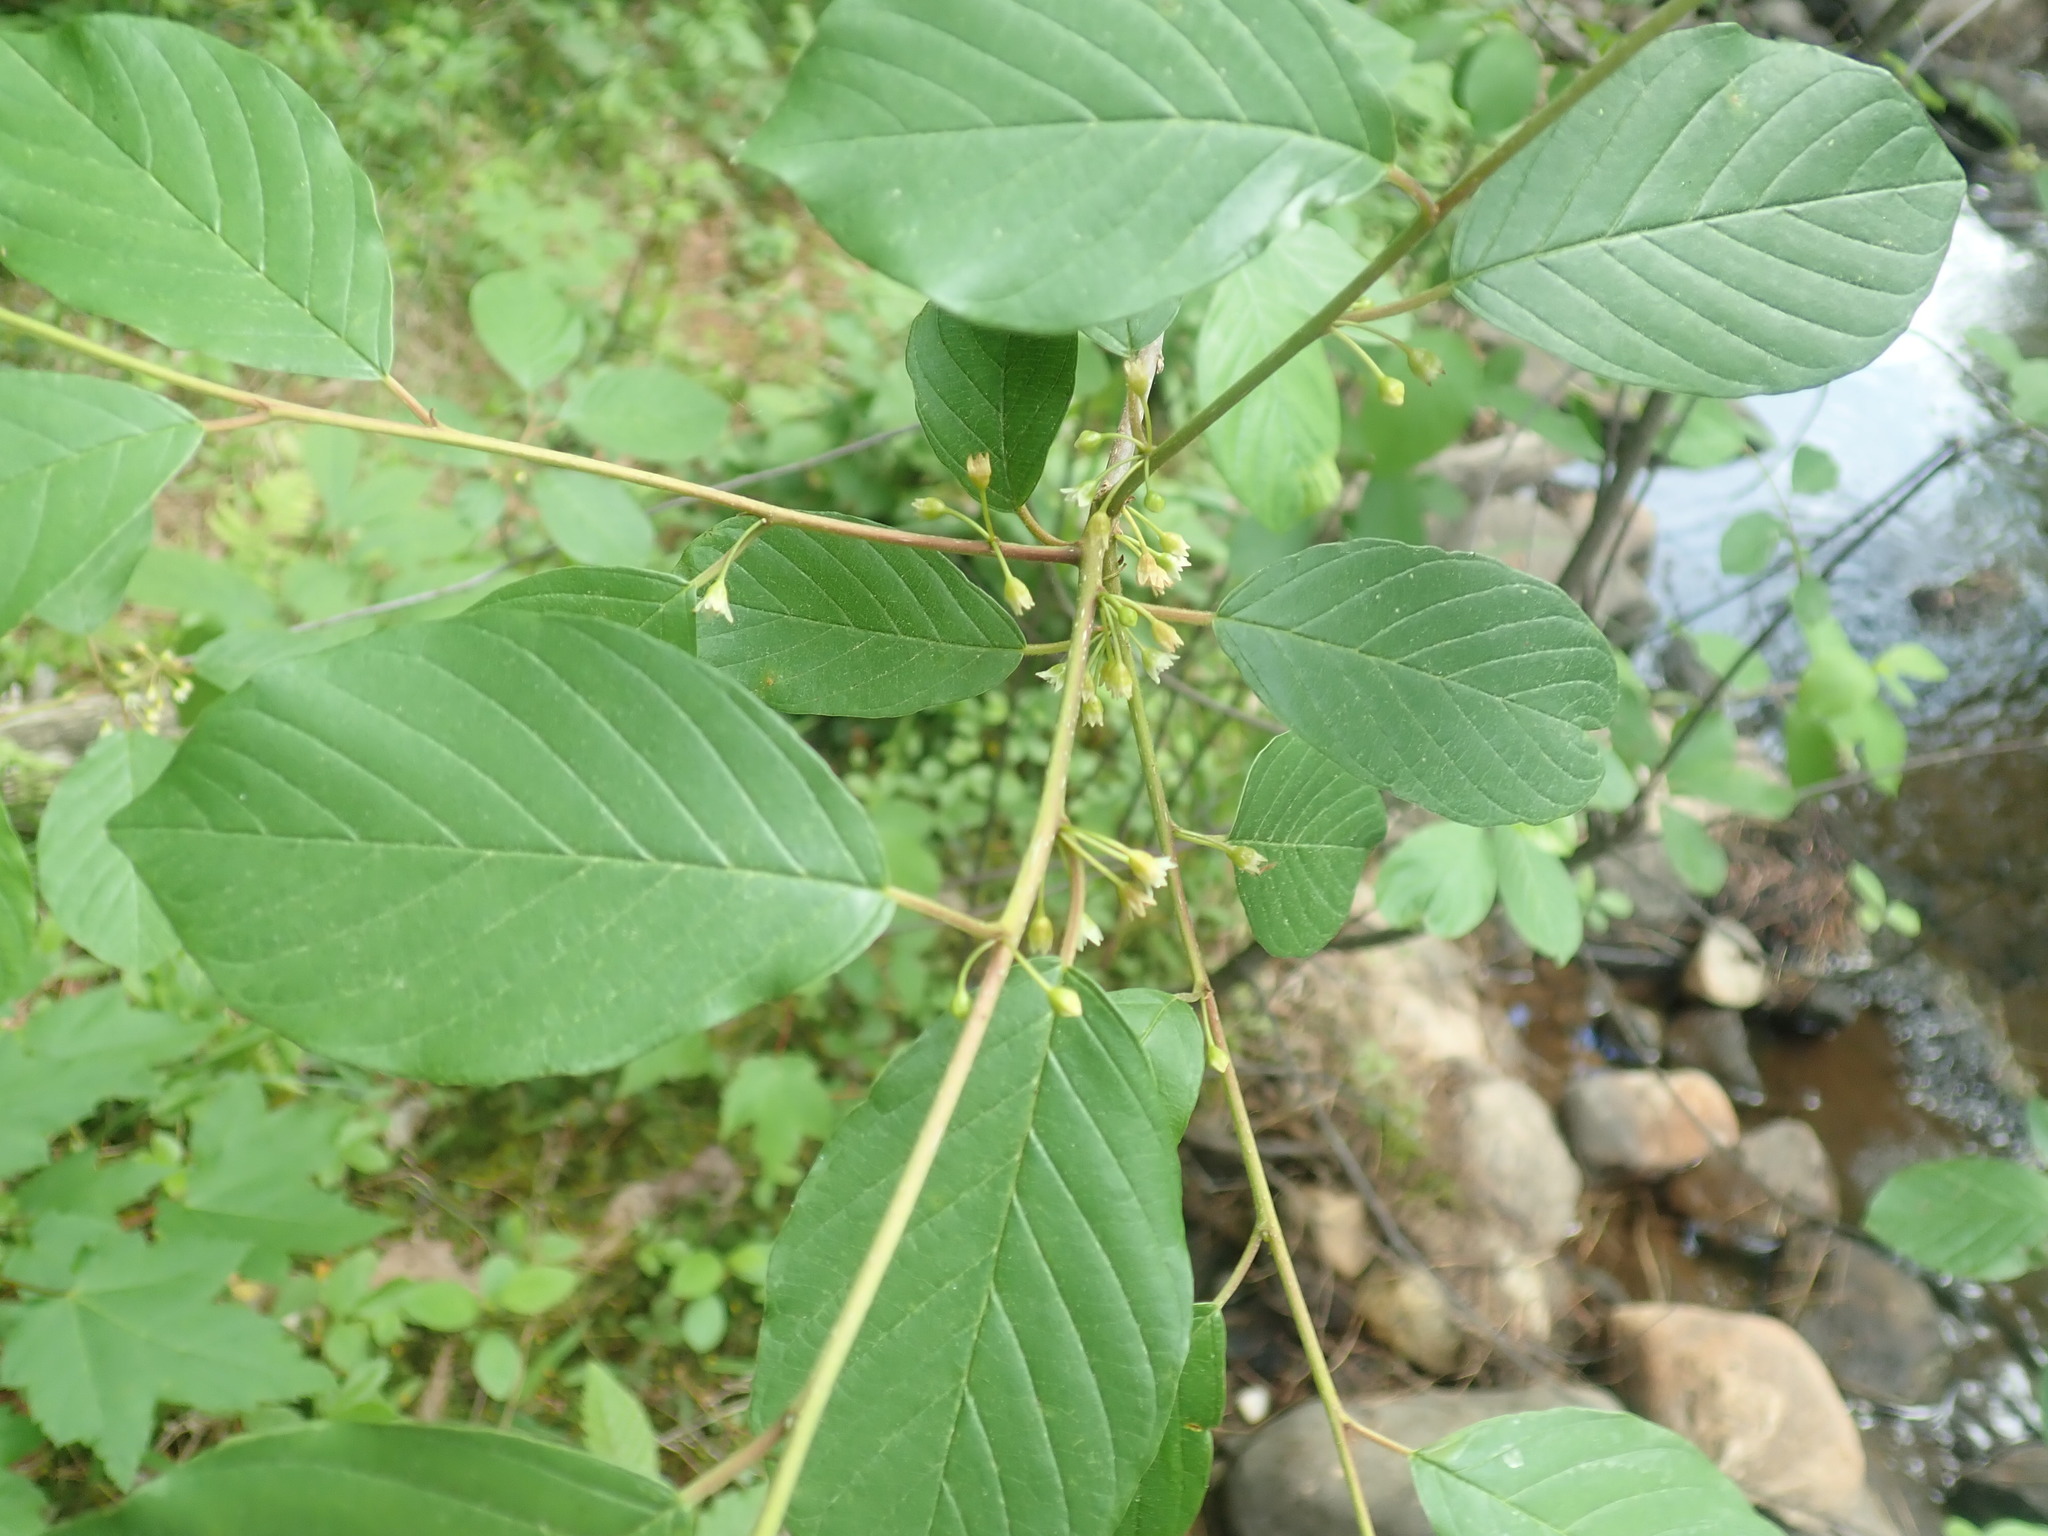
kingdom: Plantae
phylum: Tracheophyta
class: Magnoliopsida
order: Rosales
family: Rhamnaceae
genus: Frangula
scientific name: Frangula alnus
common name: Alder buckthorn
